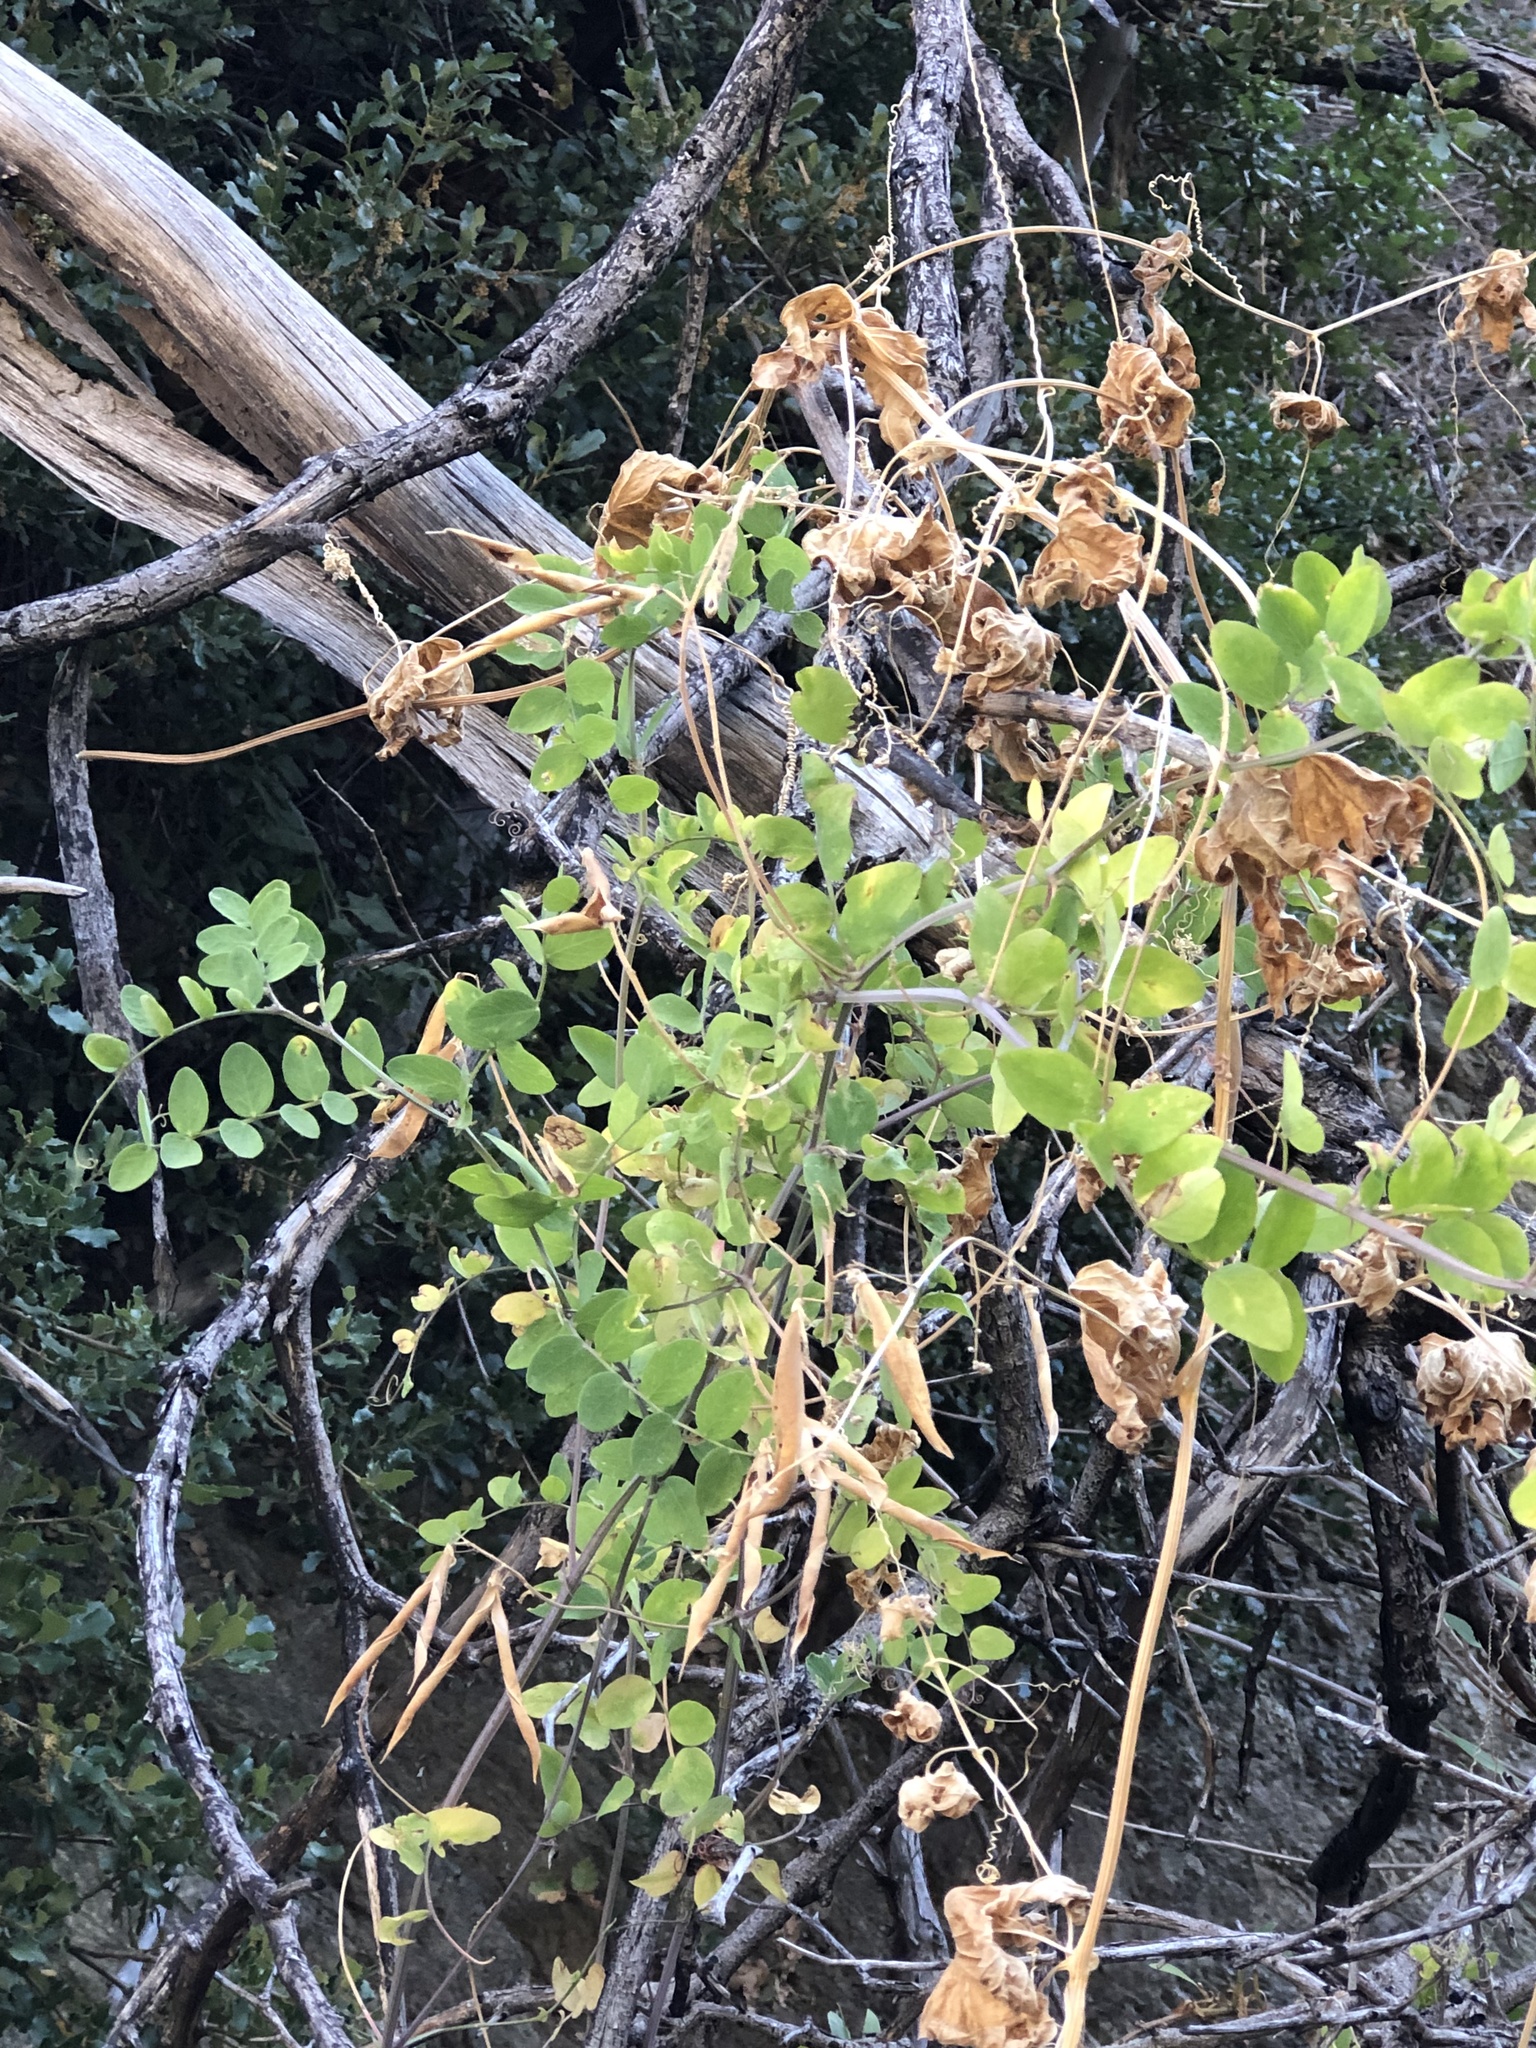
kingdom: Plantae
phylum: Tracheophyta
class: Magnoliopsida
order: Fabales
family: Fabaceae
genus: Lathyrus
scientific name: Lathyrus vestitus
